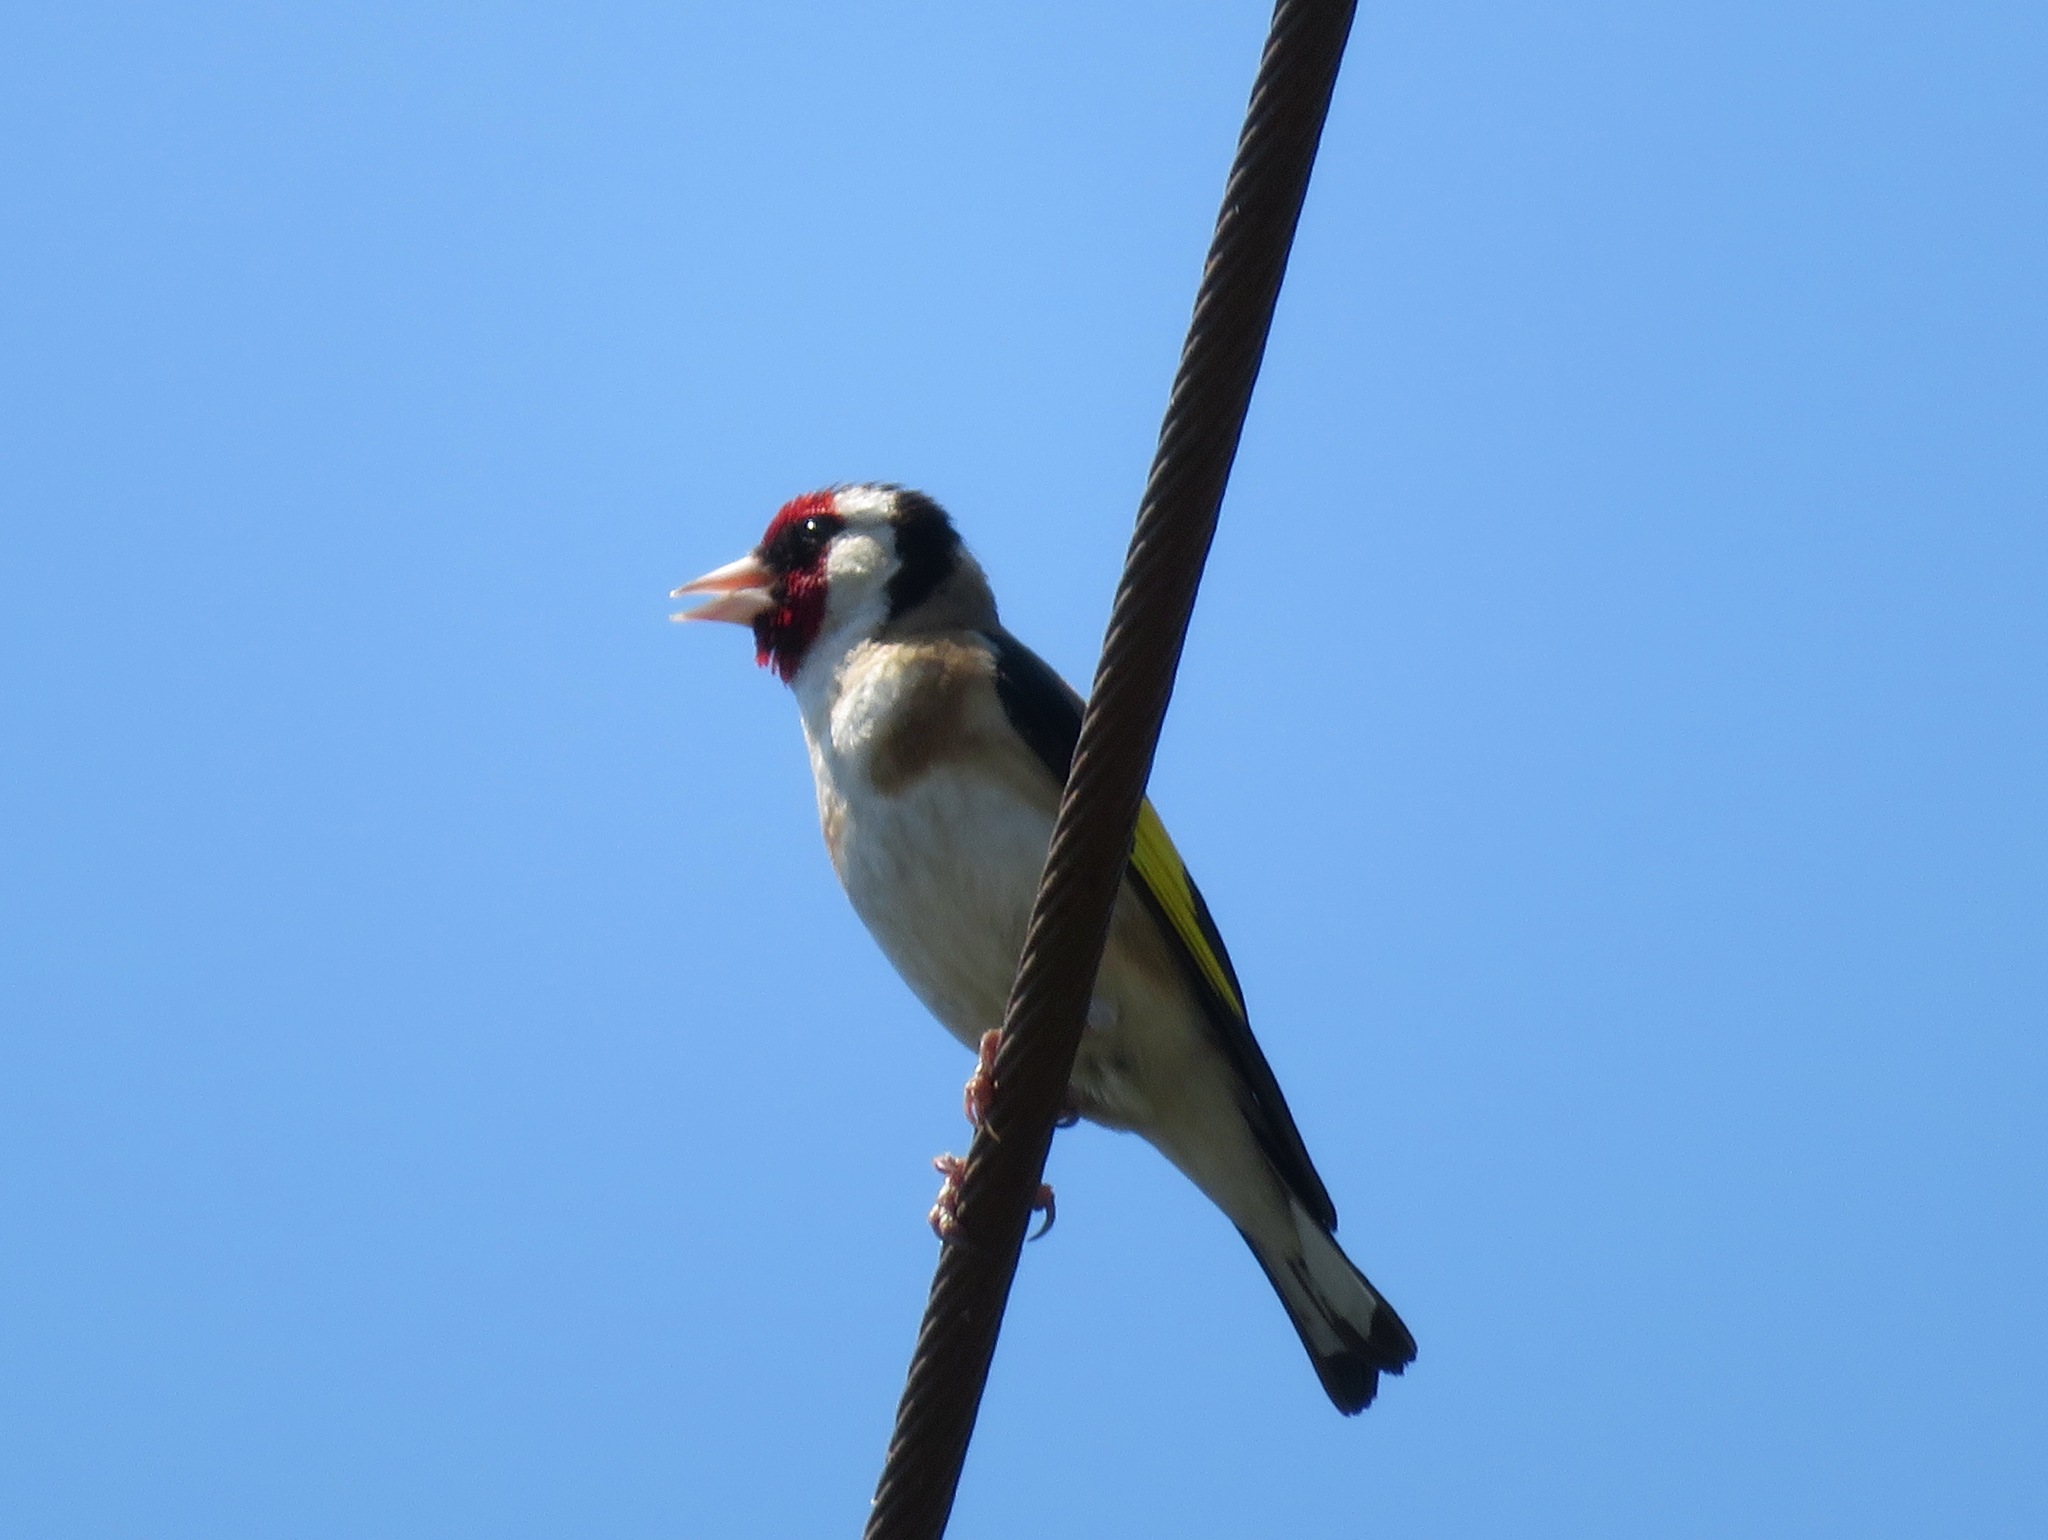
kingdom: Animalia
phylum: Chordata
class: Aves
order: Passeriformes
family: Fringillidae
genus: Carduelis
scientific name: Carduelis carduelis
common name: European goldfinch
